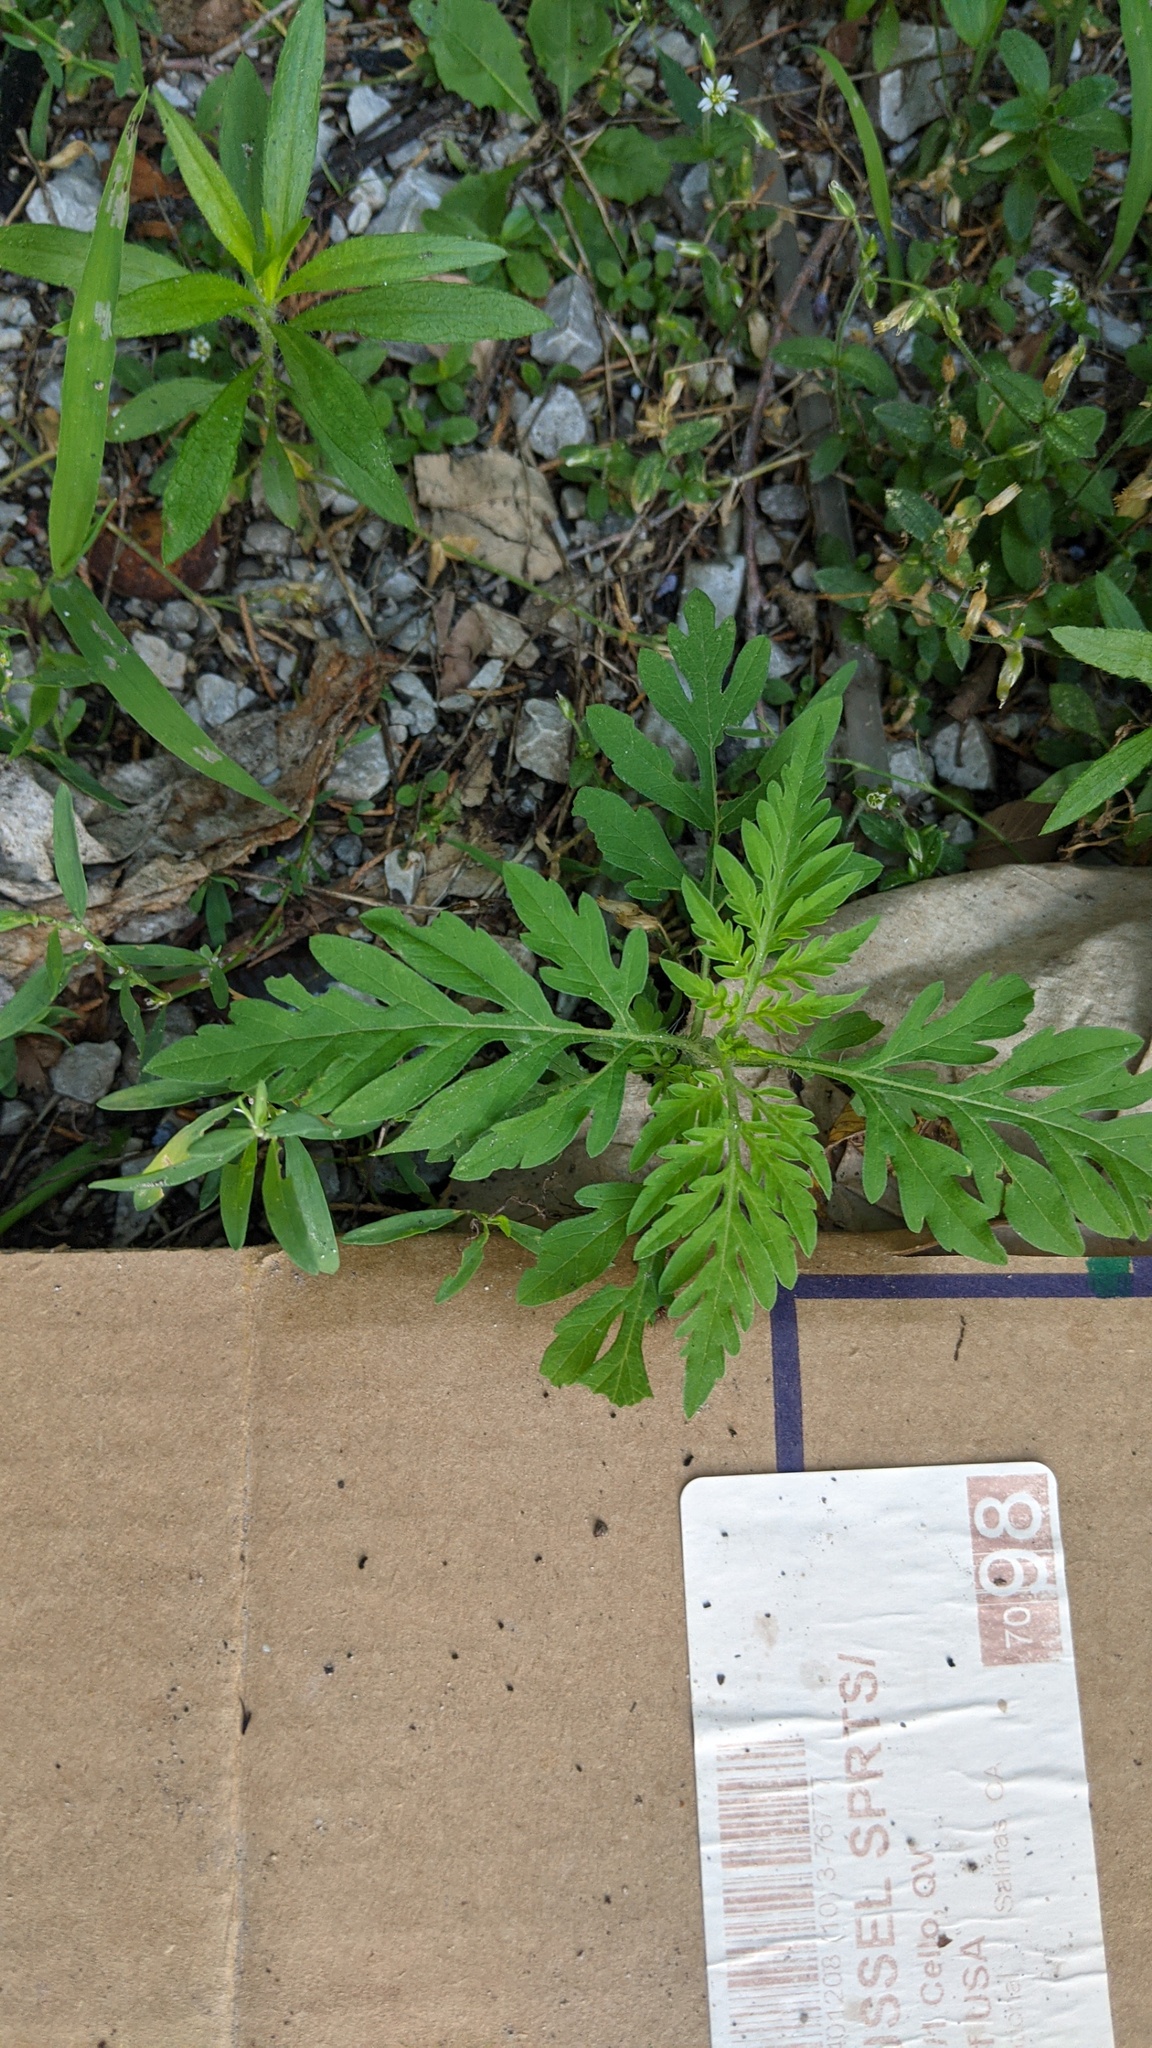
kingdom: Plantae
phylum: Tracheophyta
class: Magnoliopsida
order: Asterales
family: Asteraceae
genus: Ambrosia
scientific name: Ambrosia artemisiifolia
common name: Annual ragweed
